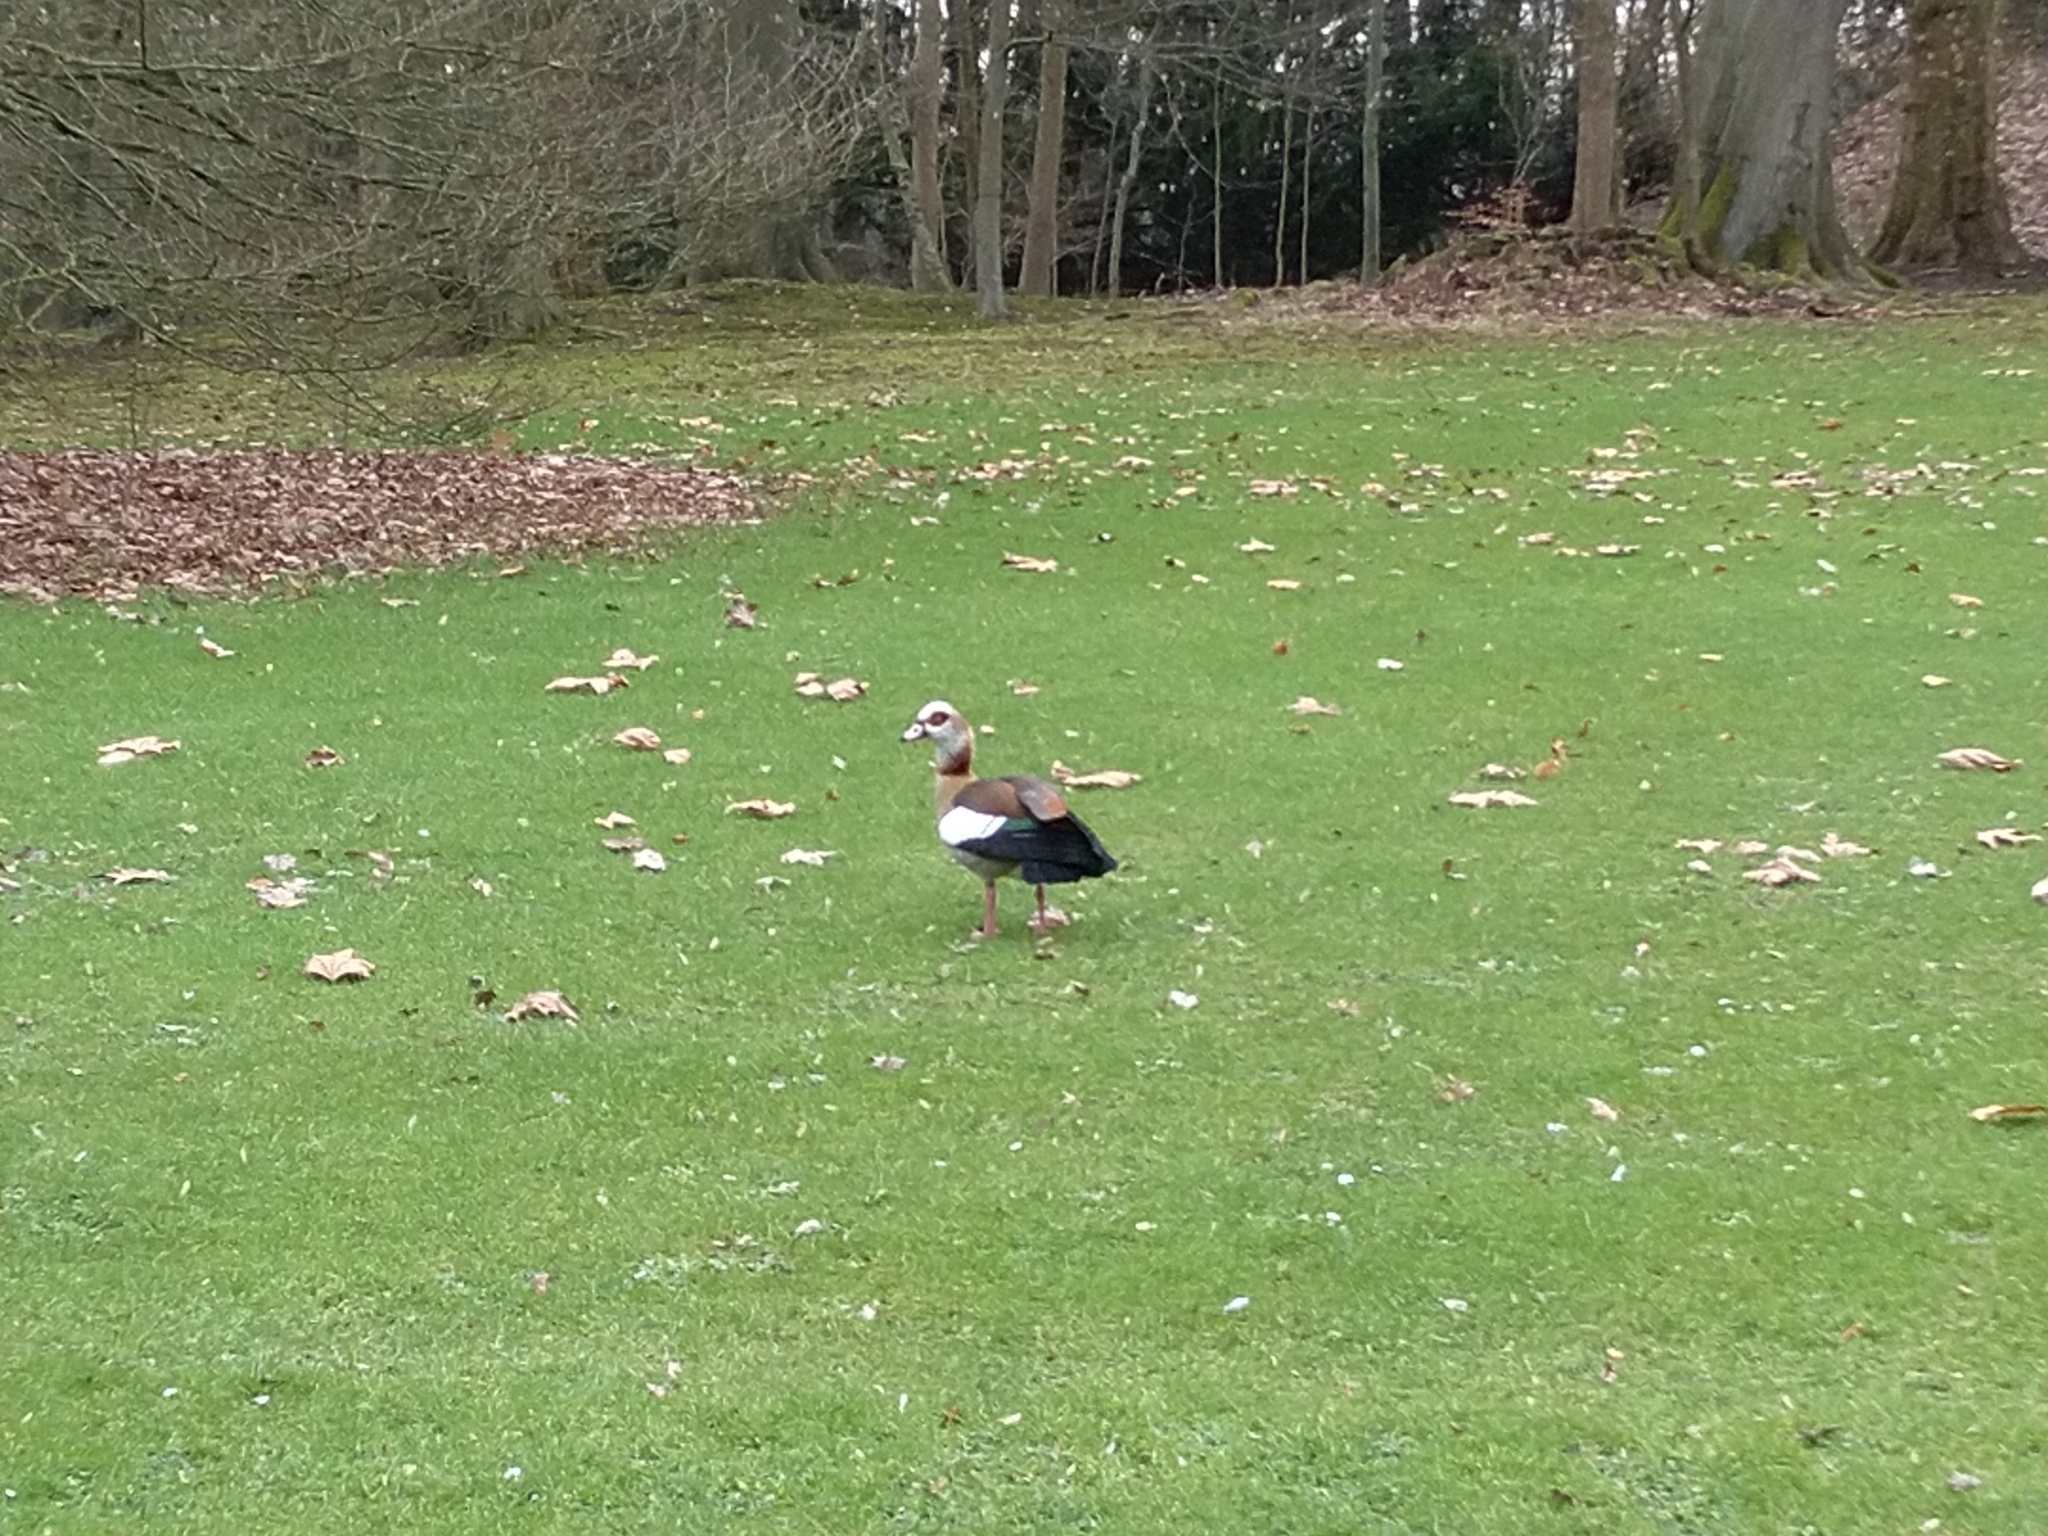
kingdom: Animalia
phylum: Chordata
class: Aves
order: Anseriformes
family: Anatidae
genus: Alopochen
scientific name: Alopochen aegyptiaca
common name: Egyptian goose
